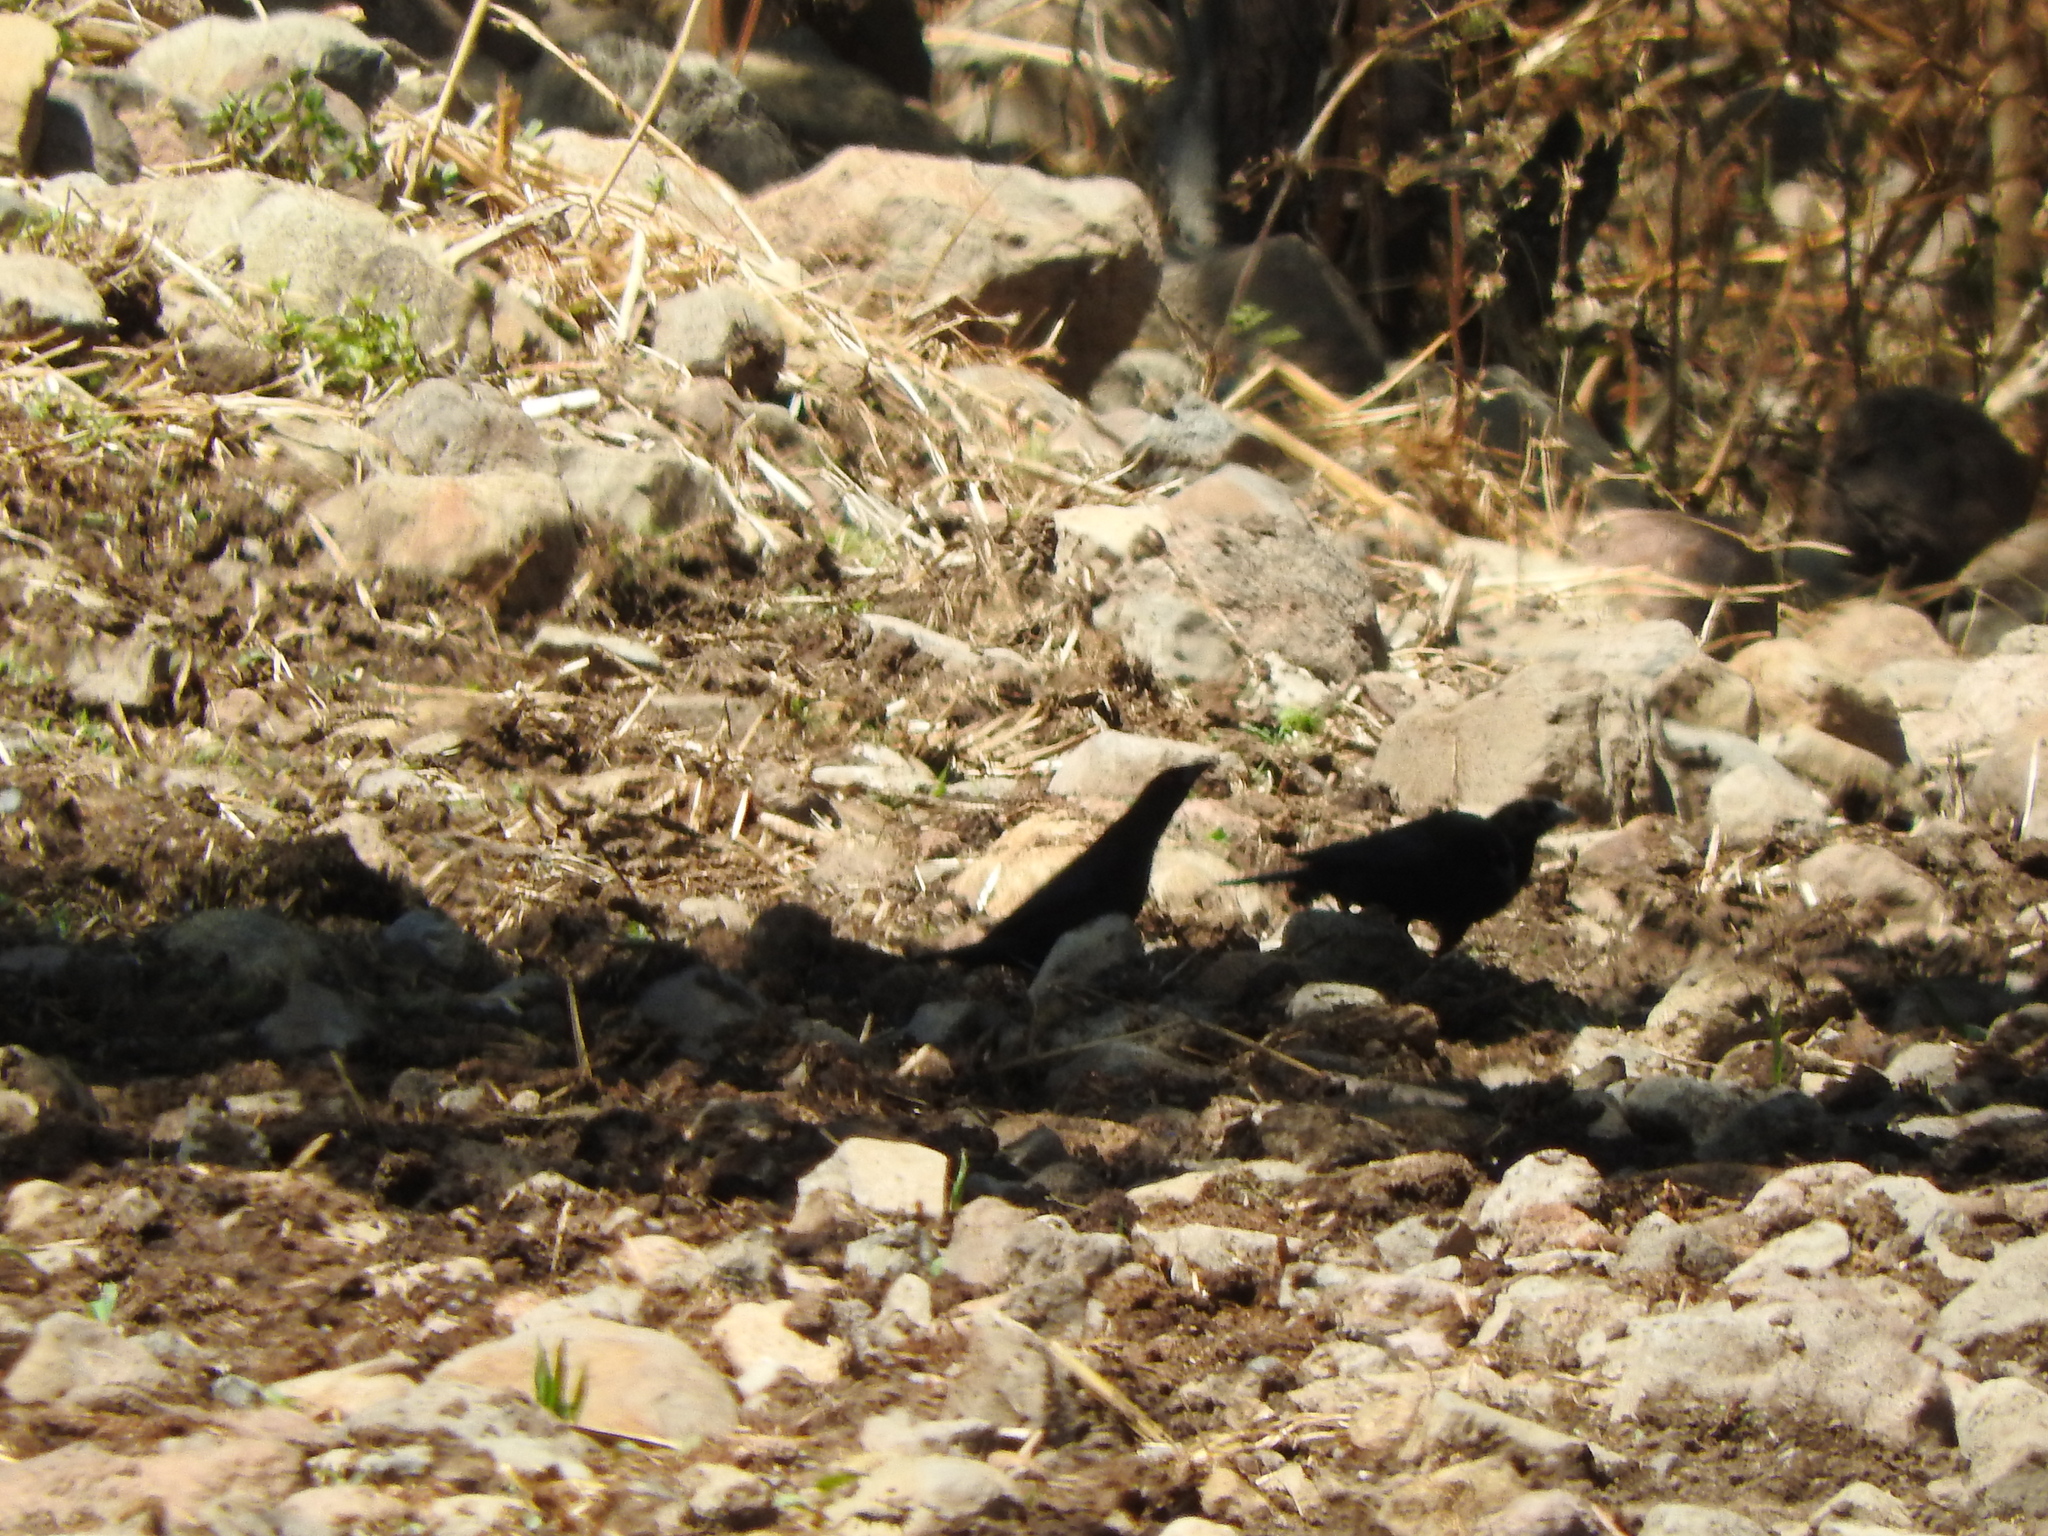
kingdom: Animalia
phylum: Chordata
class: Aves
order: Passeriformes
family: Icteridae
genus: Molothrus
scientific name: Molothrus aeneus
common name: Bronzed cowbird
